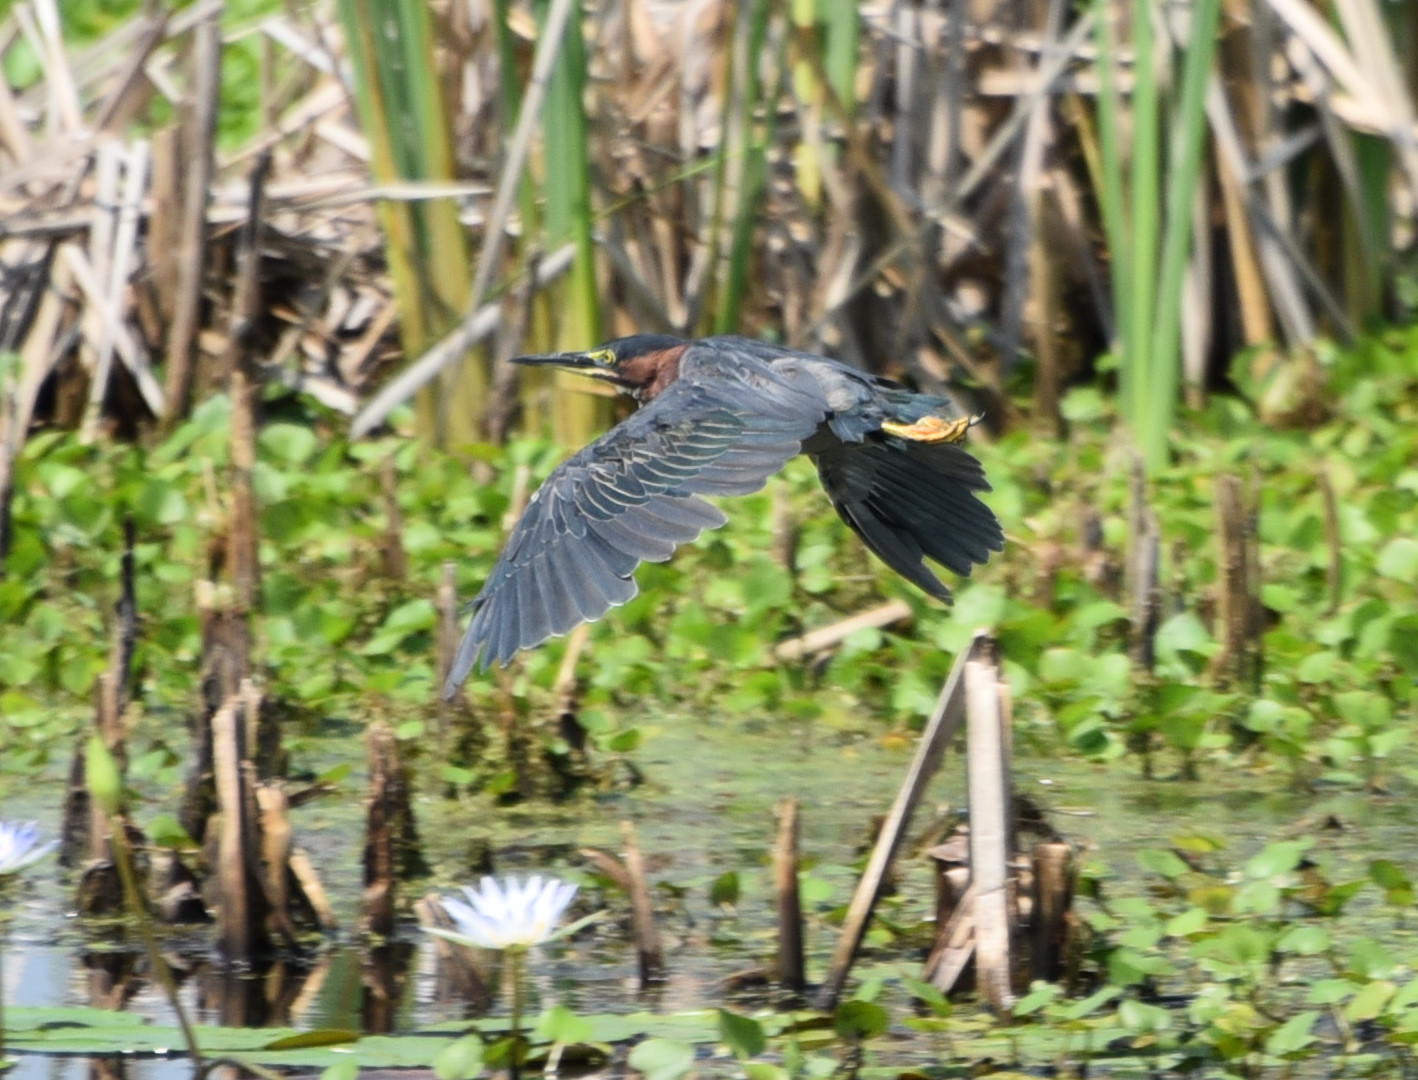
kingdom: Animalia
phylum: Chordata
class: Aves
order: Pelecaniformes
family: Ardeidae
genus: Butorides
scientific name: Butorides virescens
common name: Green heron
